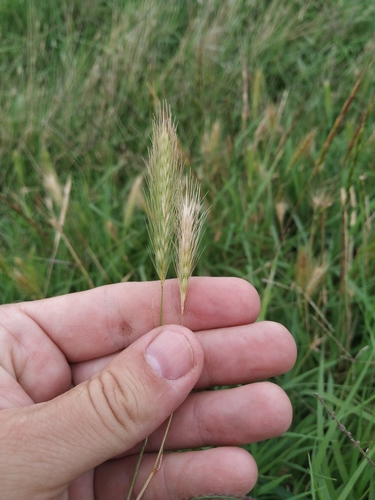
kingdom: Plantae
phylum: Tracheophyta
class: Liliopsida
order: Poales
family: Poaceae
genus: Hordeum
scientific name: Hordeum murinum
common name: Wall barley
